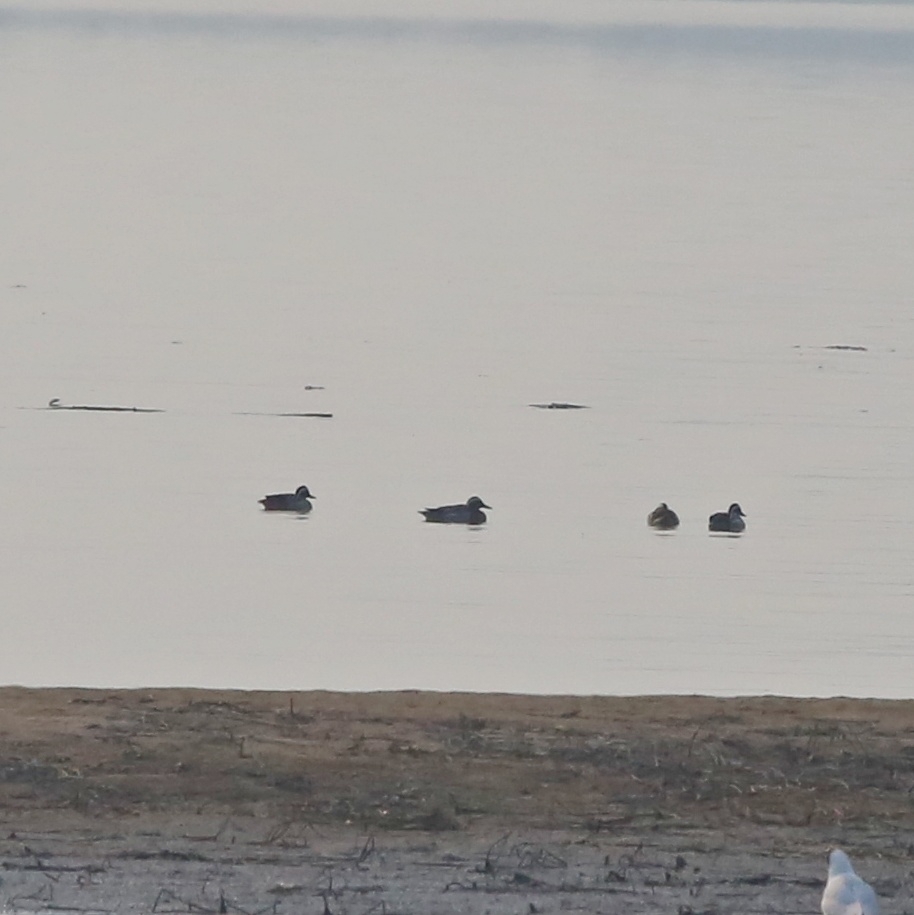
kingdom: Animalia
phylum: Chordata
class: Aves
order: Anseriformes
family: Anatidae
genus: Spatula
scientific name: Spatula querquedula
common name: Garganey
